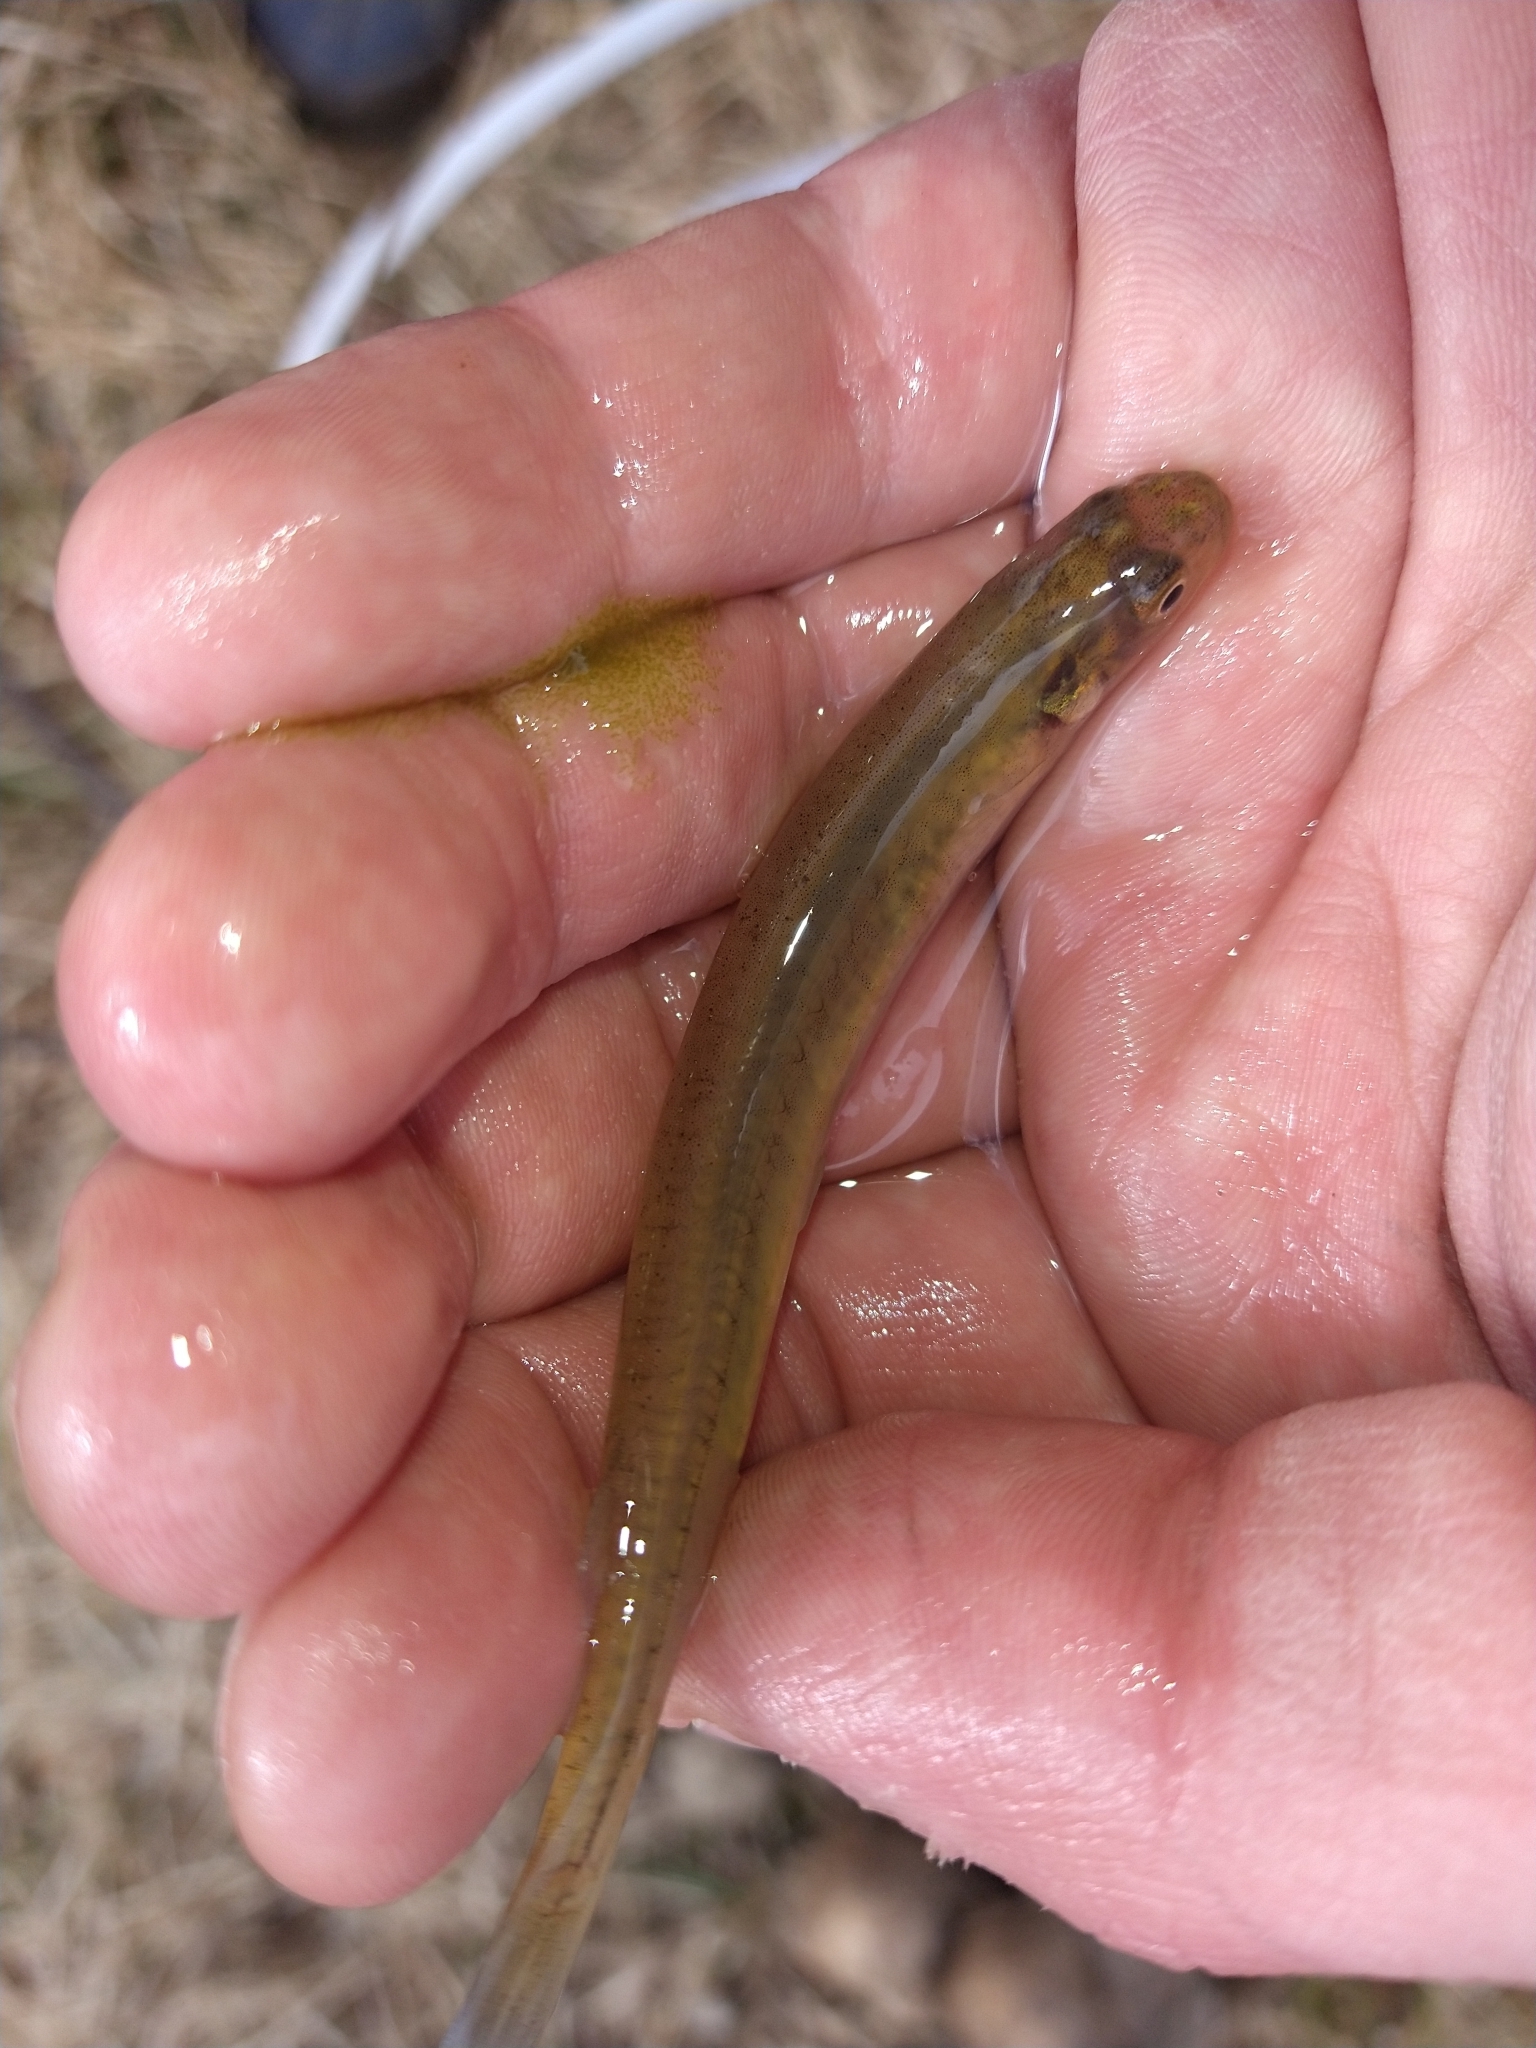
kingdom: Animalia
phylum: Chordata
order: Osmeriformes
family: Galaxiidae
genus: Galaxias
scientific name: Galaxias maculatus
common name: Common galaxias
